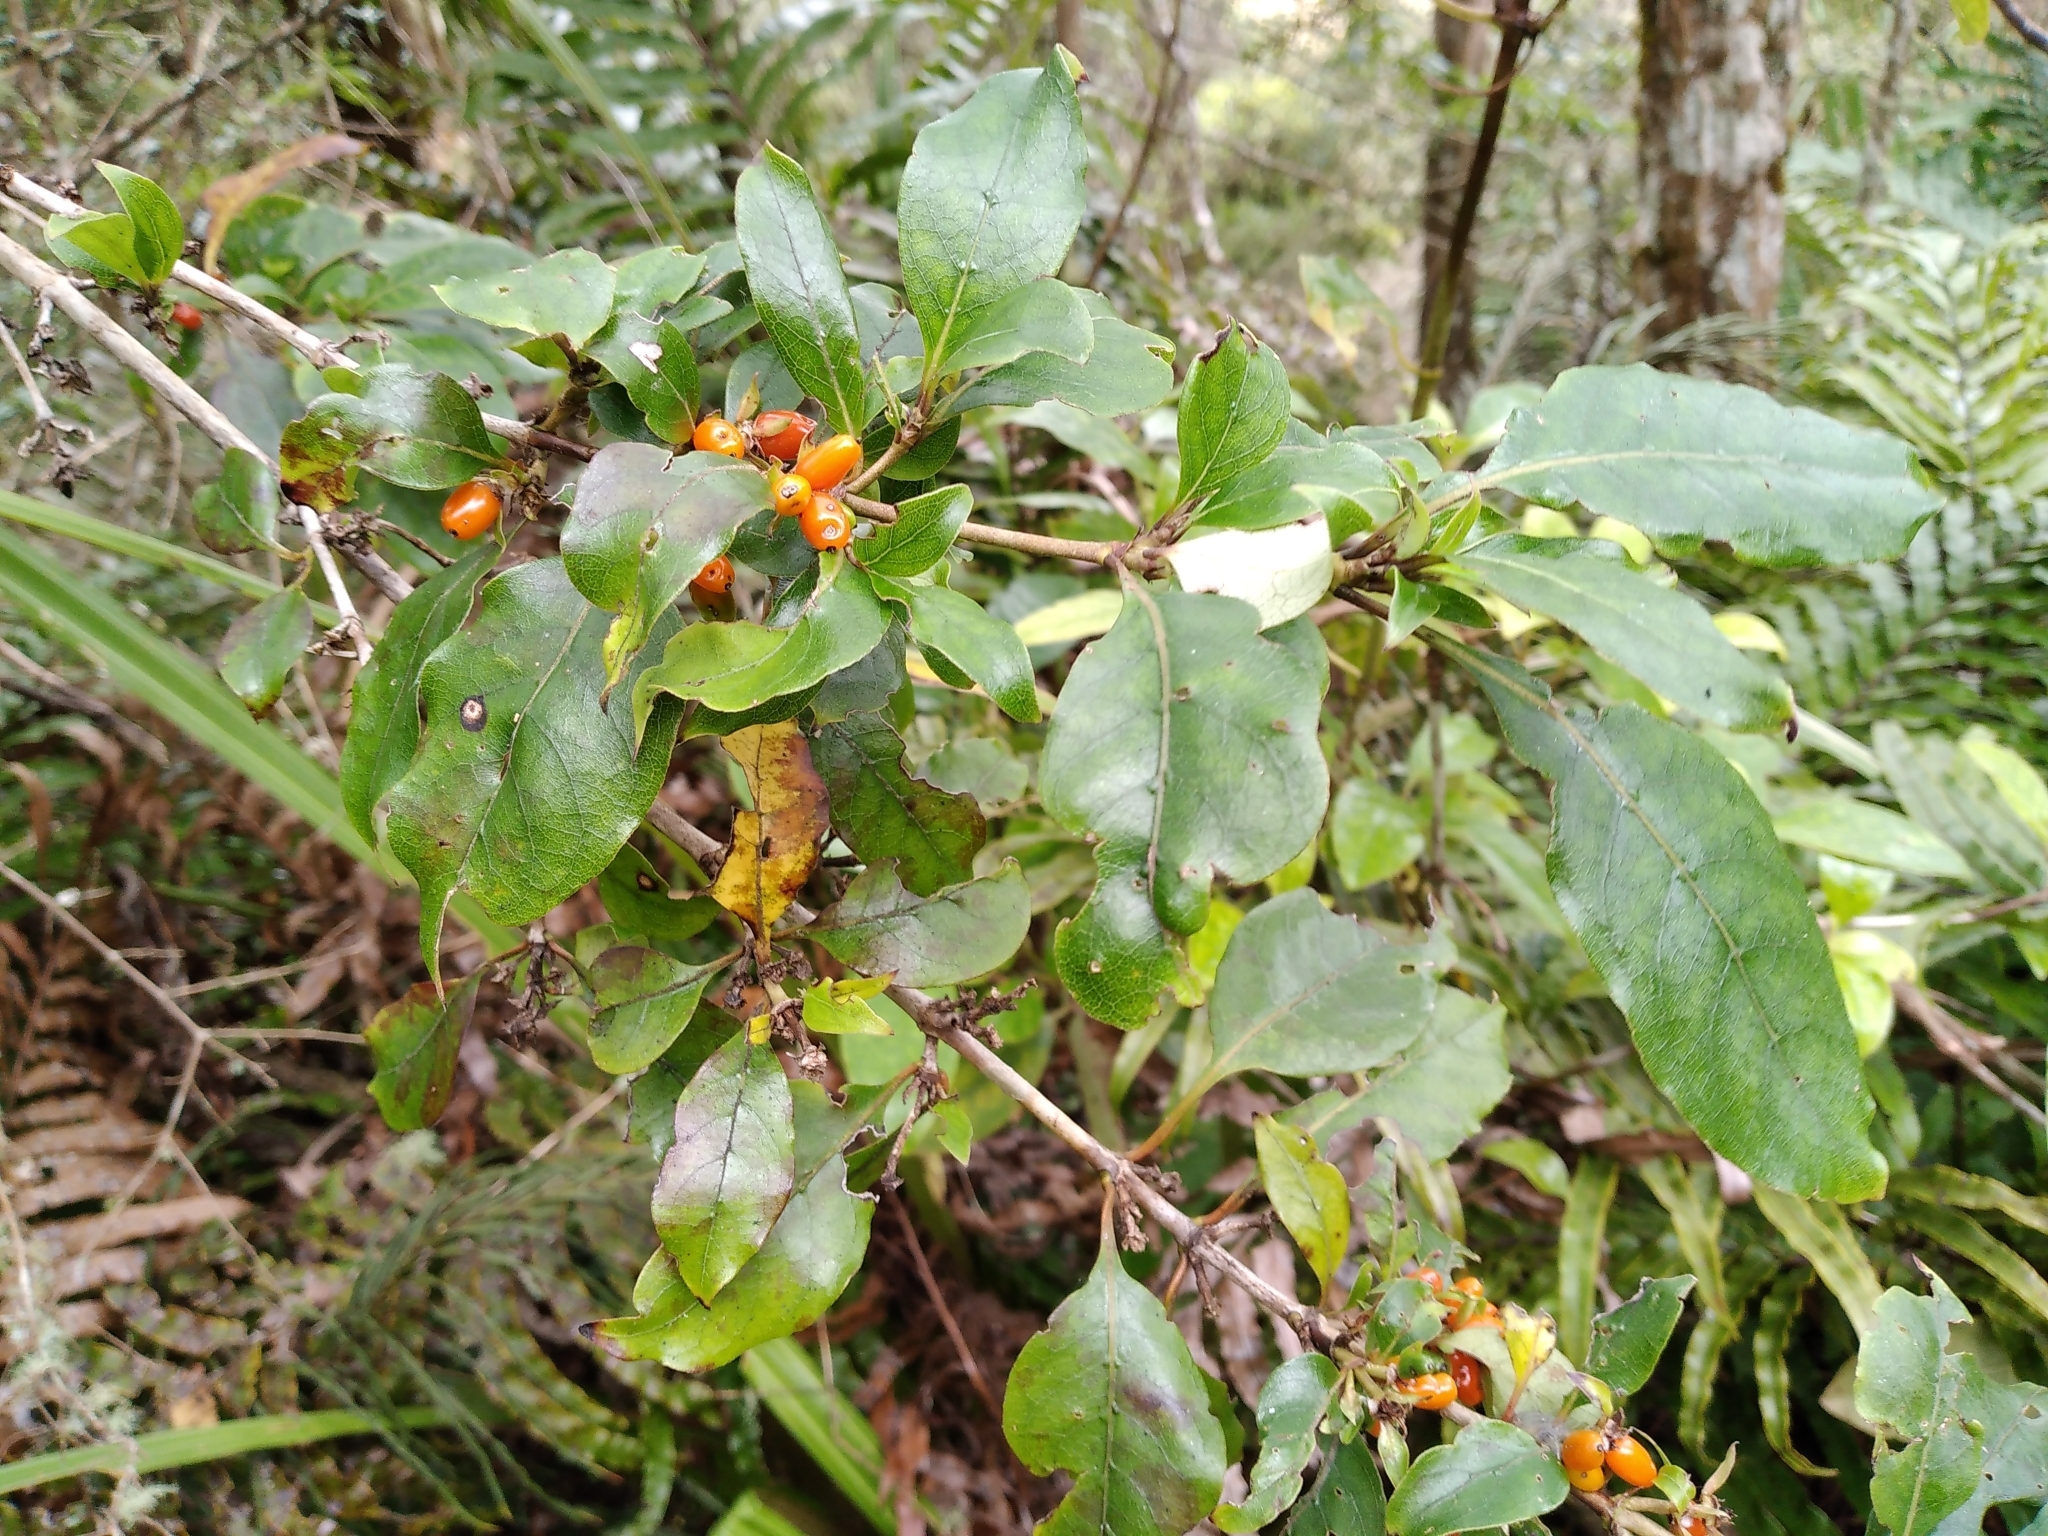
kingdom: Plantae
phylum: Tracheophyta
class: Magnoliopsida
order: Gentianales
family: Rubiaceae
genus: Coprosma
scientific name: Coprosma tenuifolia
